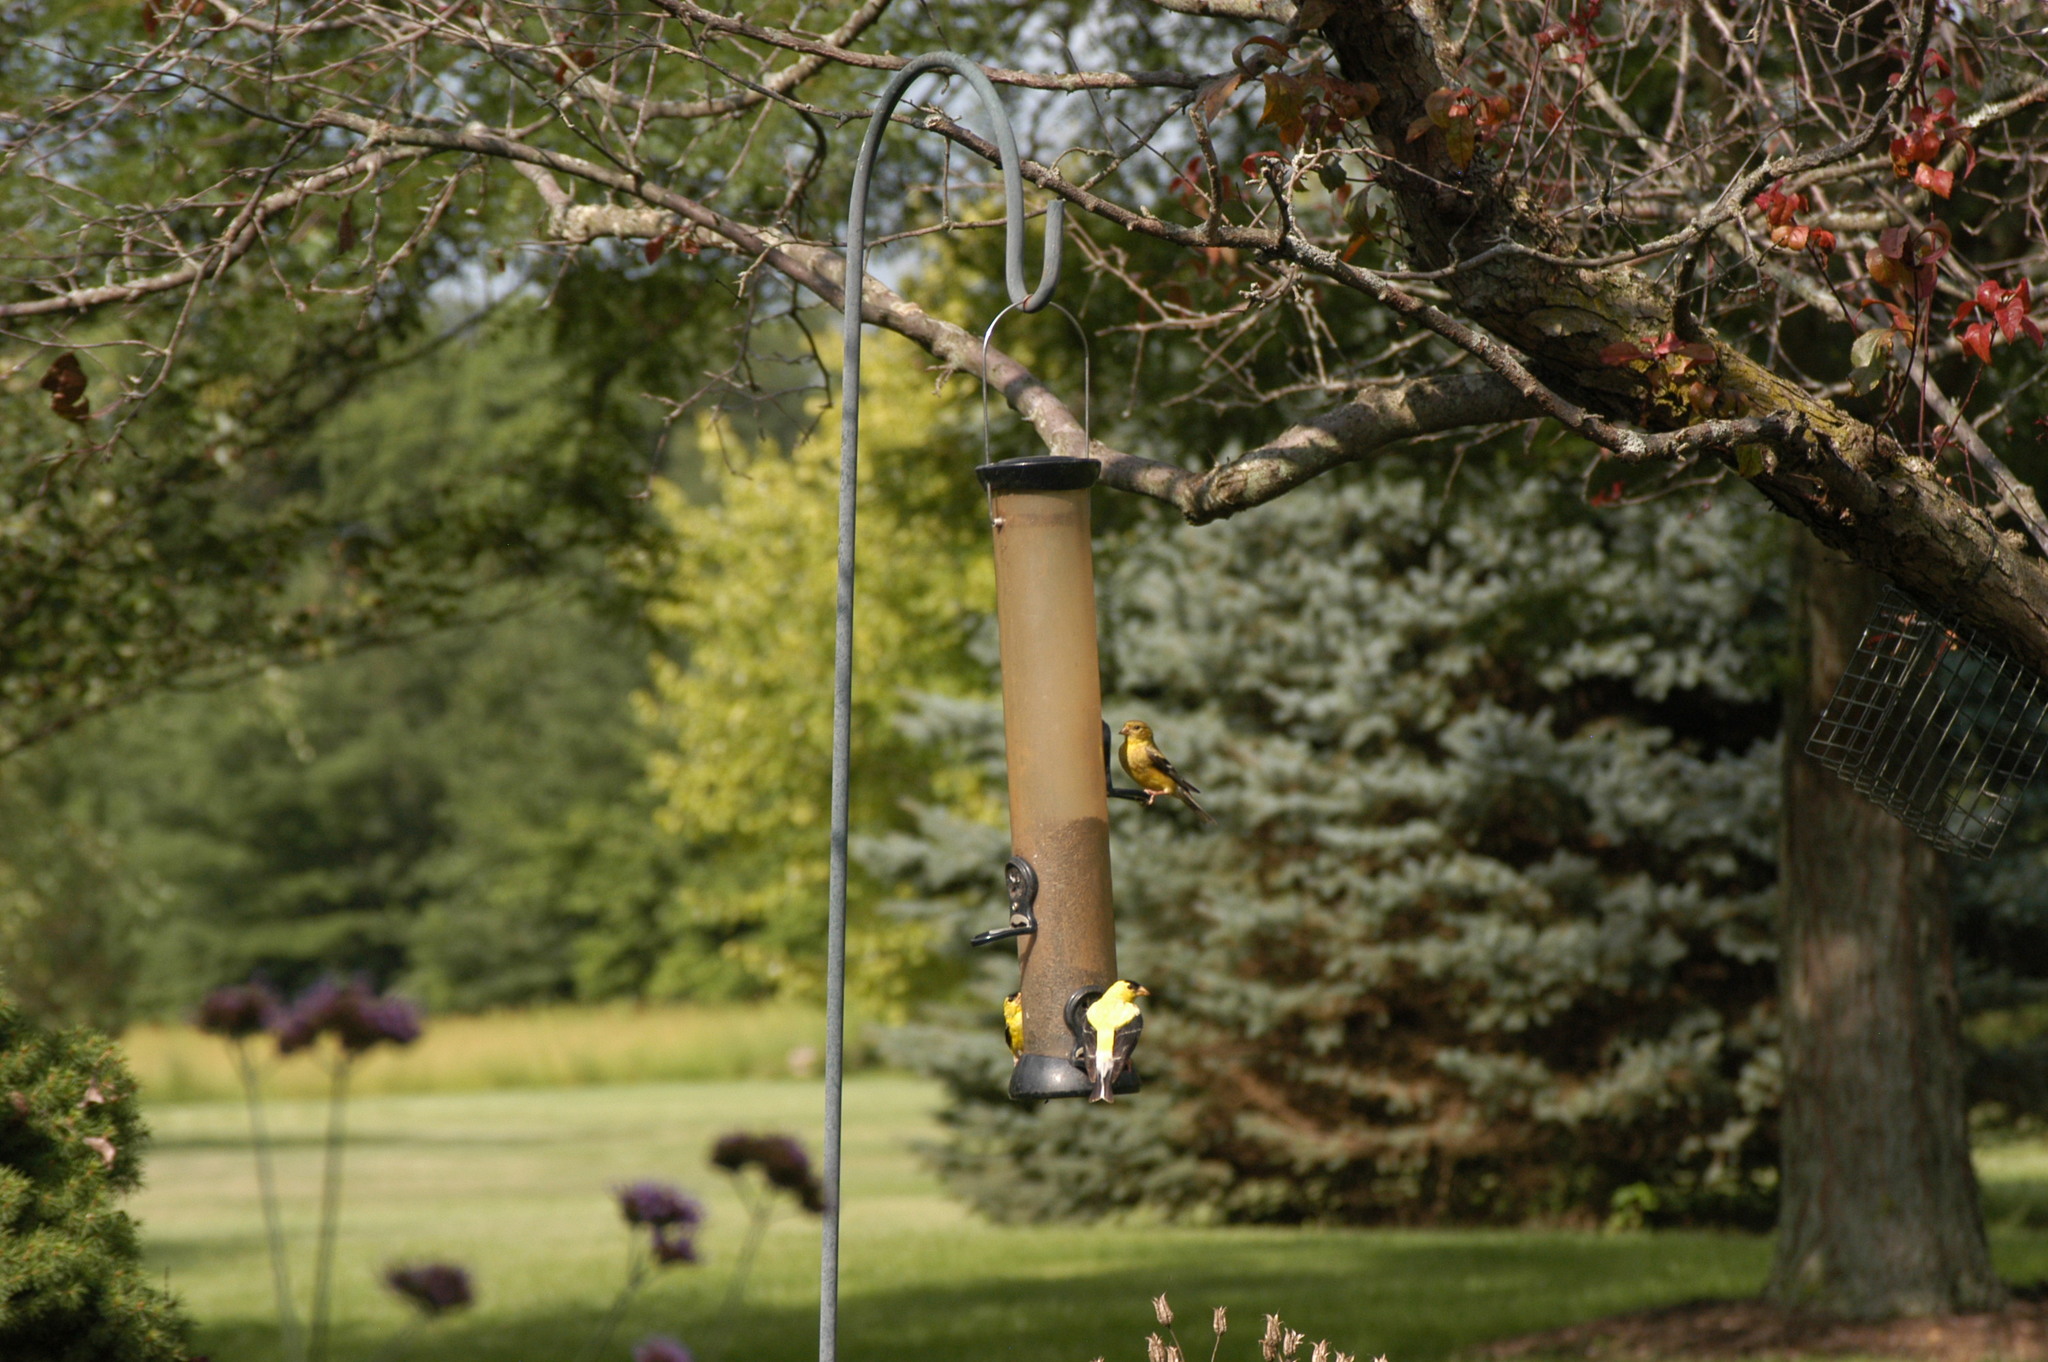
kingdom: Animalia
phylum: Chordata
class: Aves
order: Passeriformes
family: Fringillidae
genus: Spinus
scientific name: Spinus tristis
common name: American goldfinch
